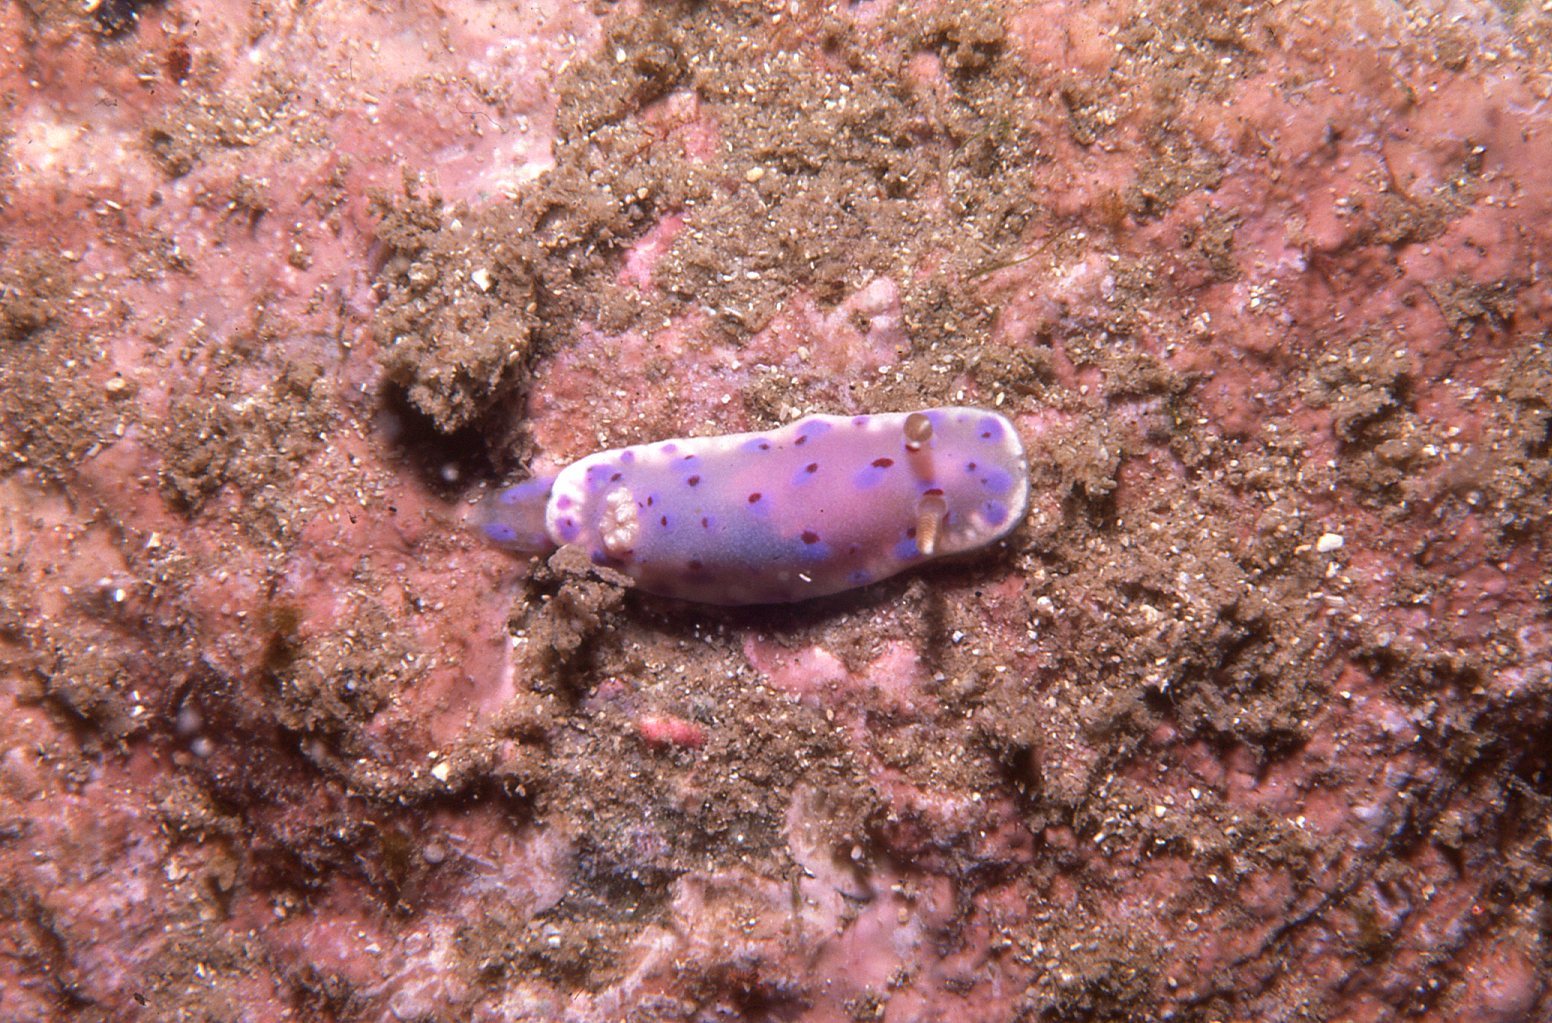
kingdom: Animalia
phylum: Mollusca
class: Gastropoda
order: Nudibranchia
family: Chromodorididae
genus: Goniobranchus
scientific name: Goniobranchus thompsoni
